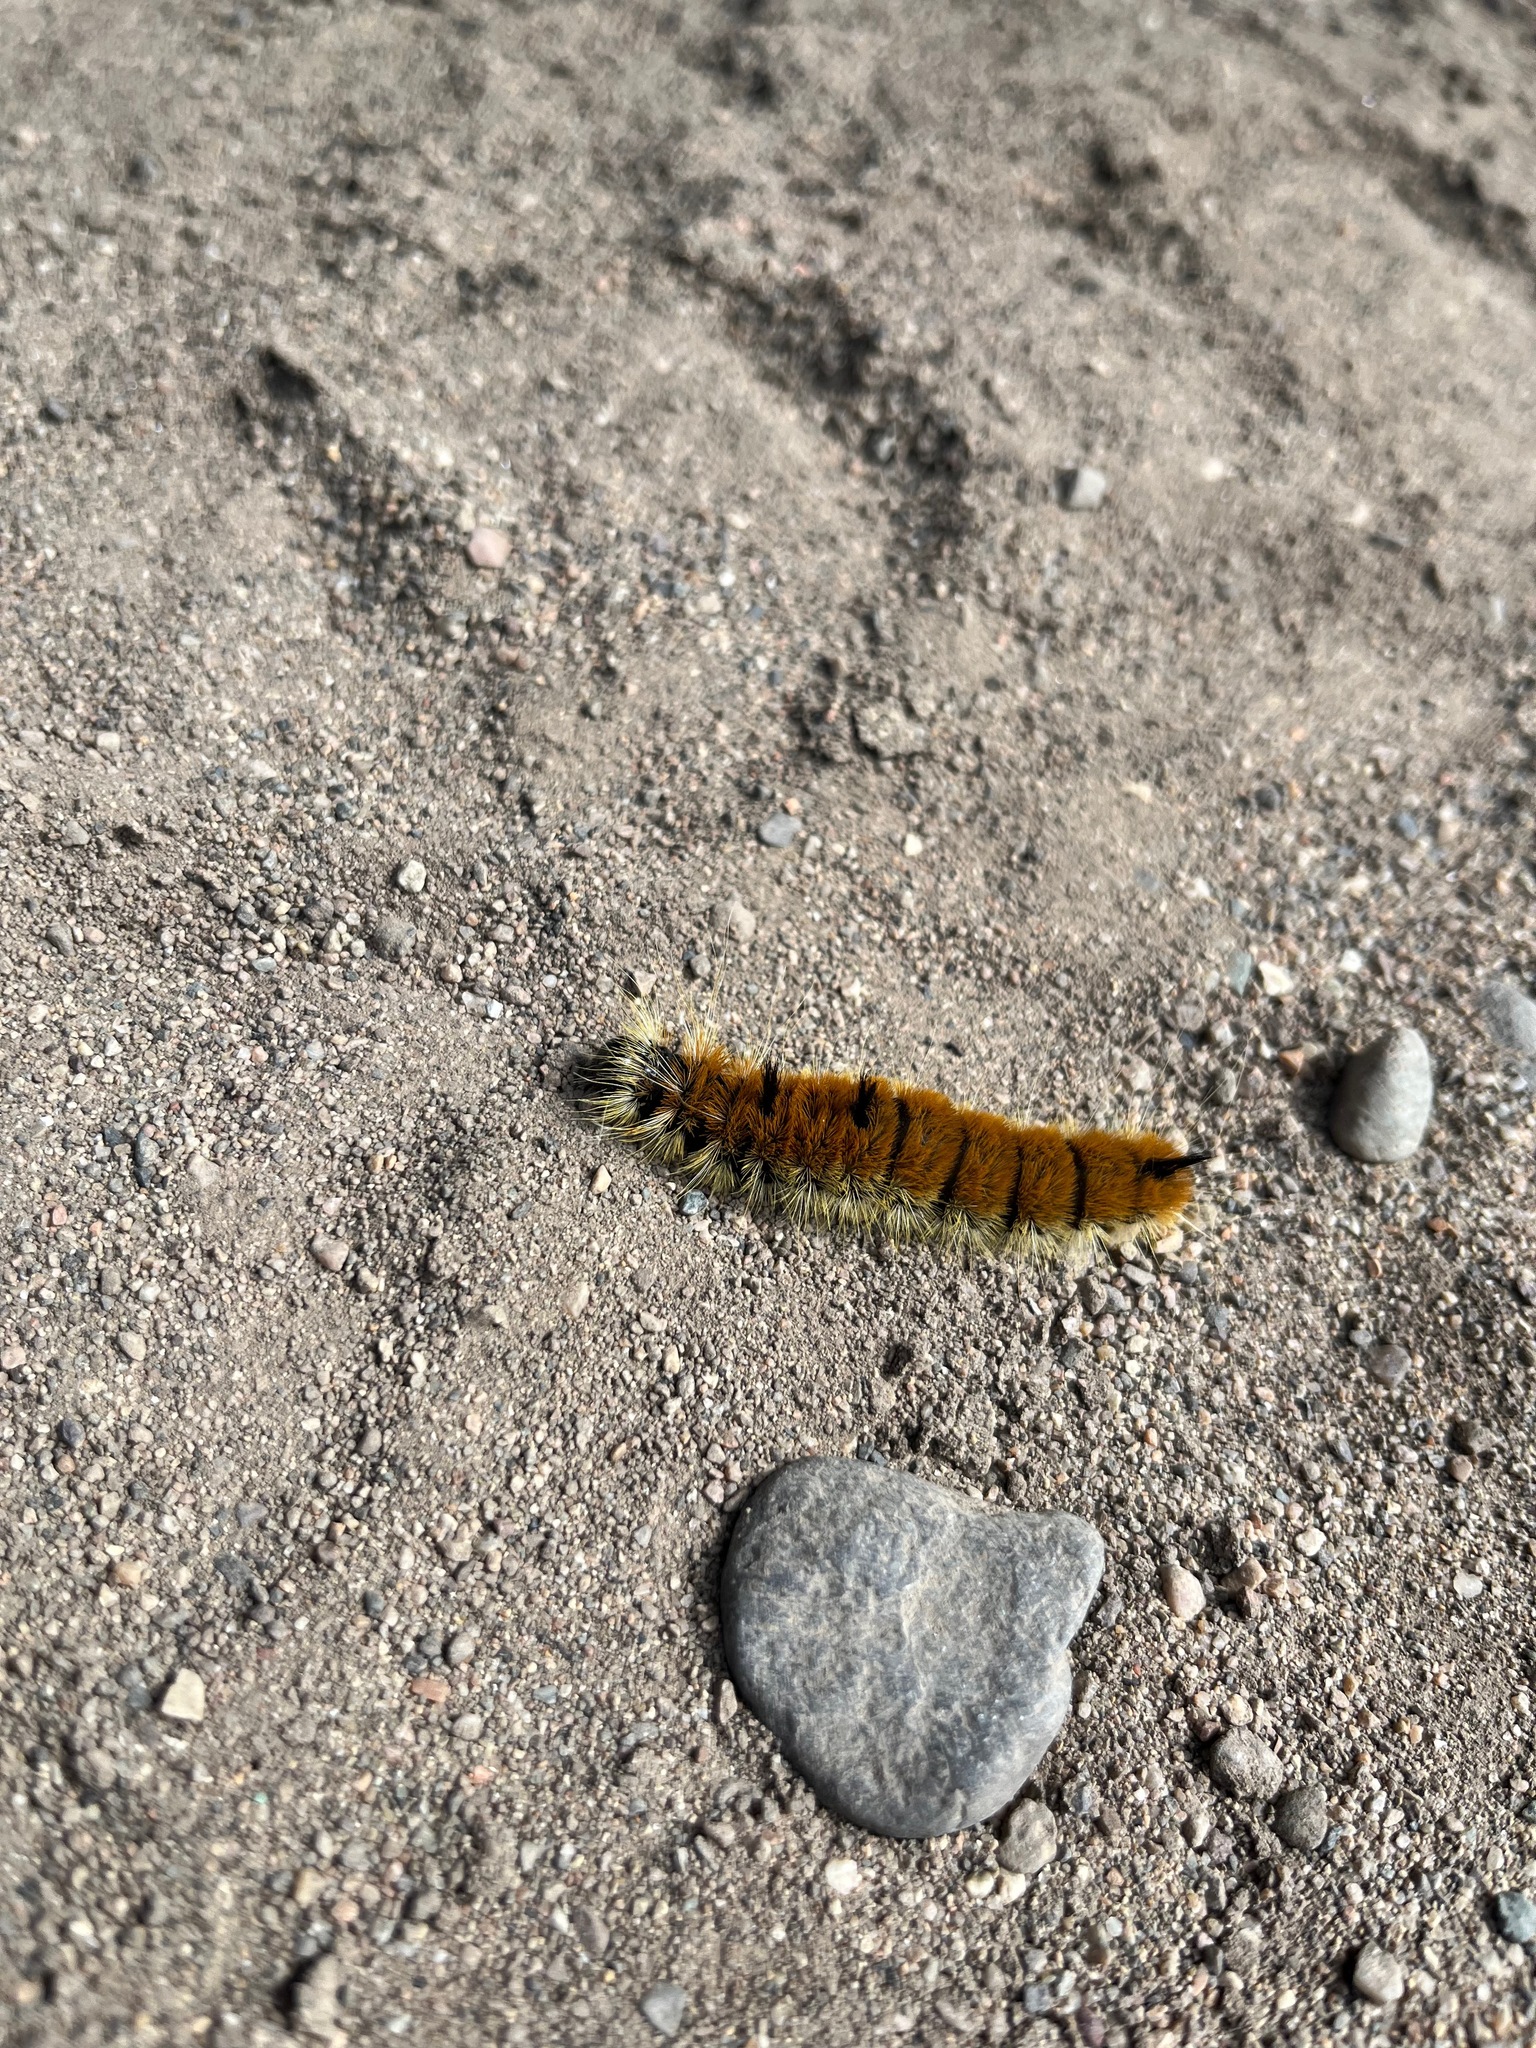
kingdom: Animalia
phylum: Arthropoda
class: Insecta
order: Lepidoptera
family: Noctuidae
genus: Acronicta
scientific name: Acronicta insita
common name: Large gray dagger
